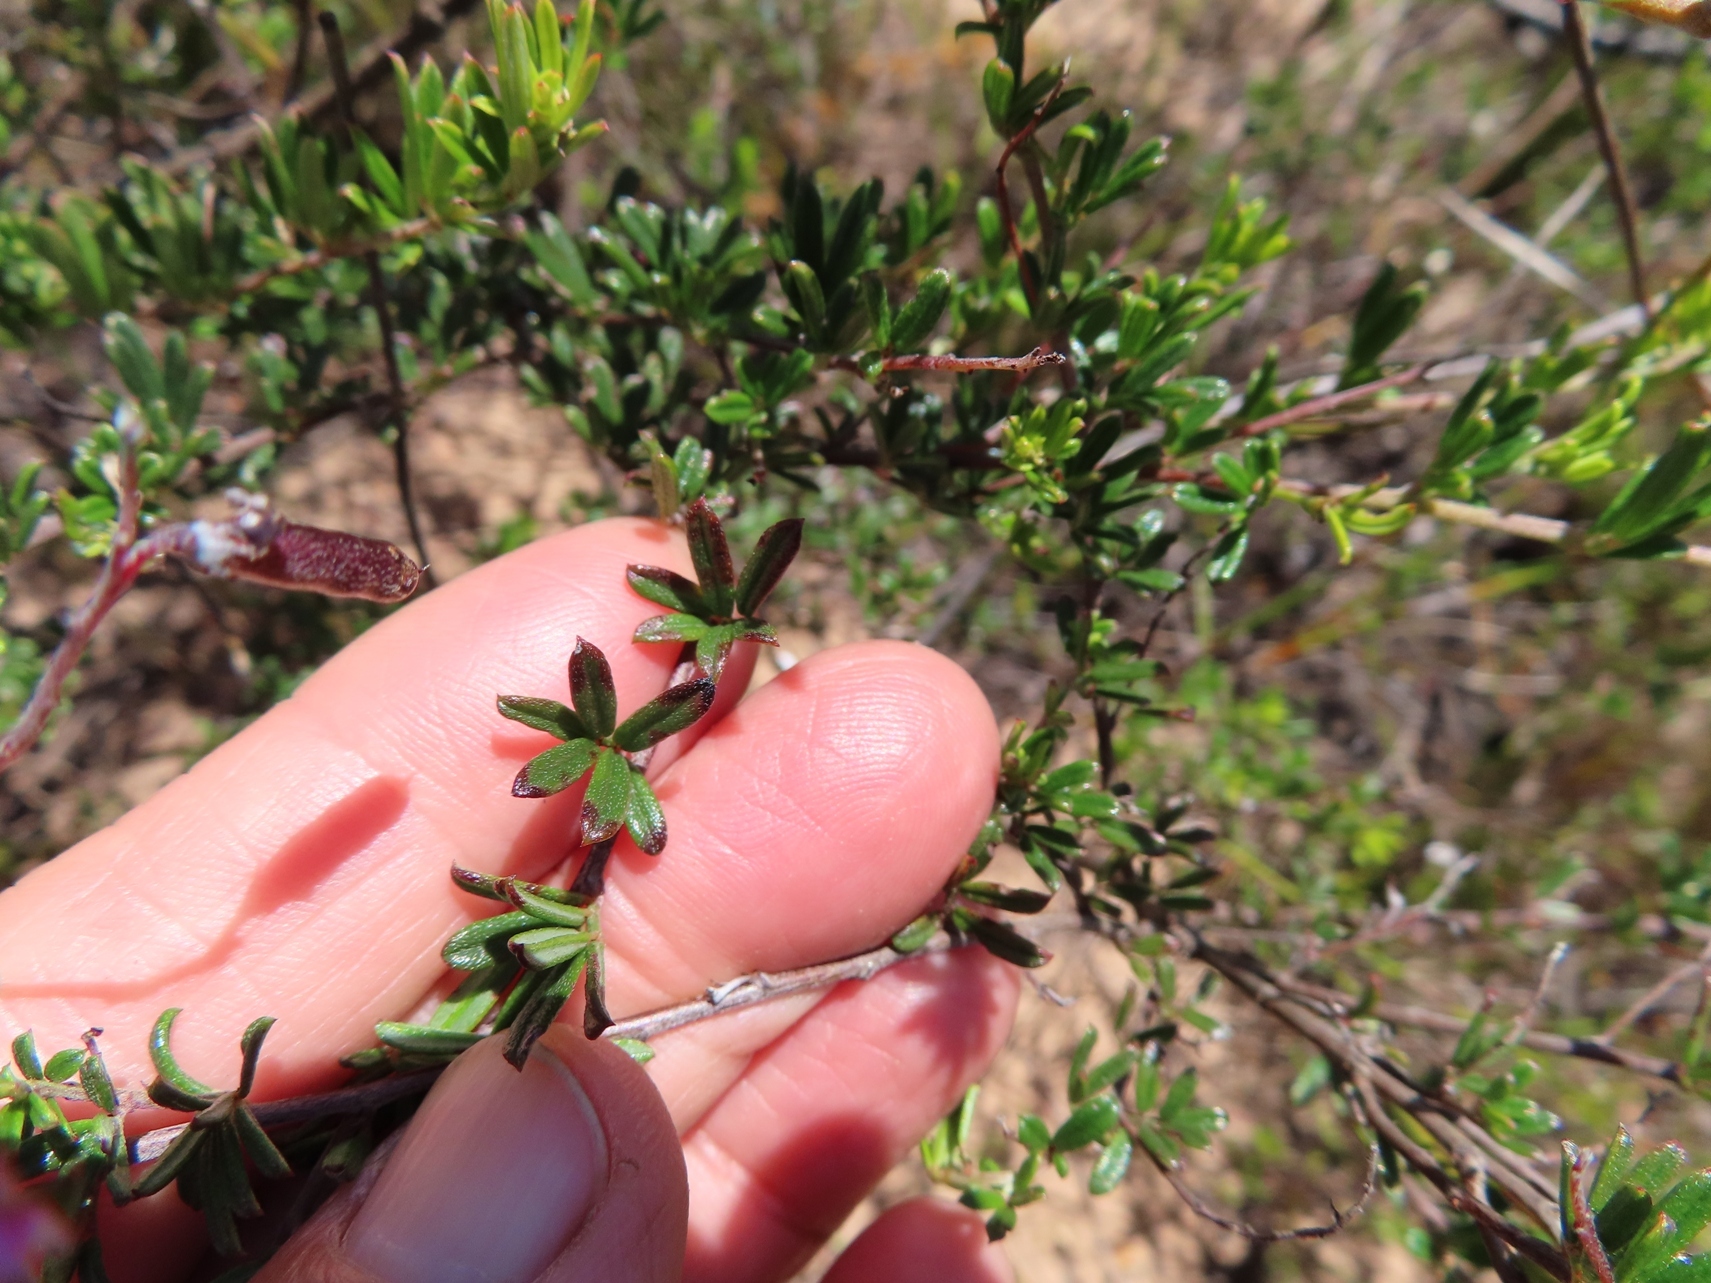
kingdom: Plantae
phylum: Tracheophyta
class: Magnoliopsida
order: Fabales
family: Fabaceae
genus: Indigofera
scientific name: Indigofera angustifolia
